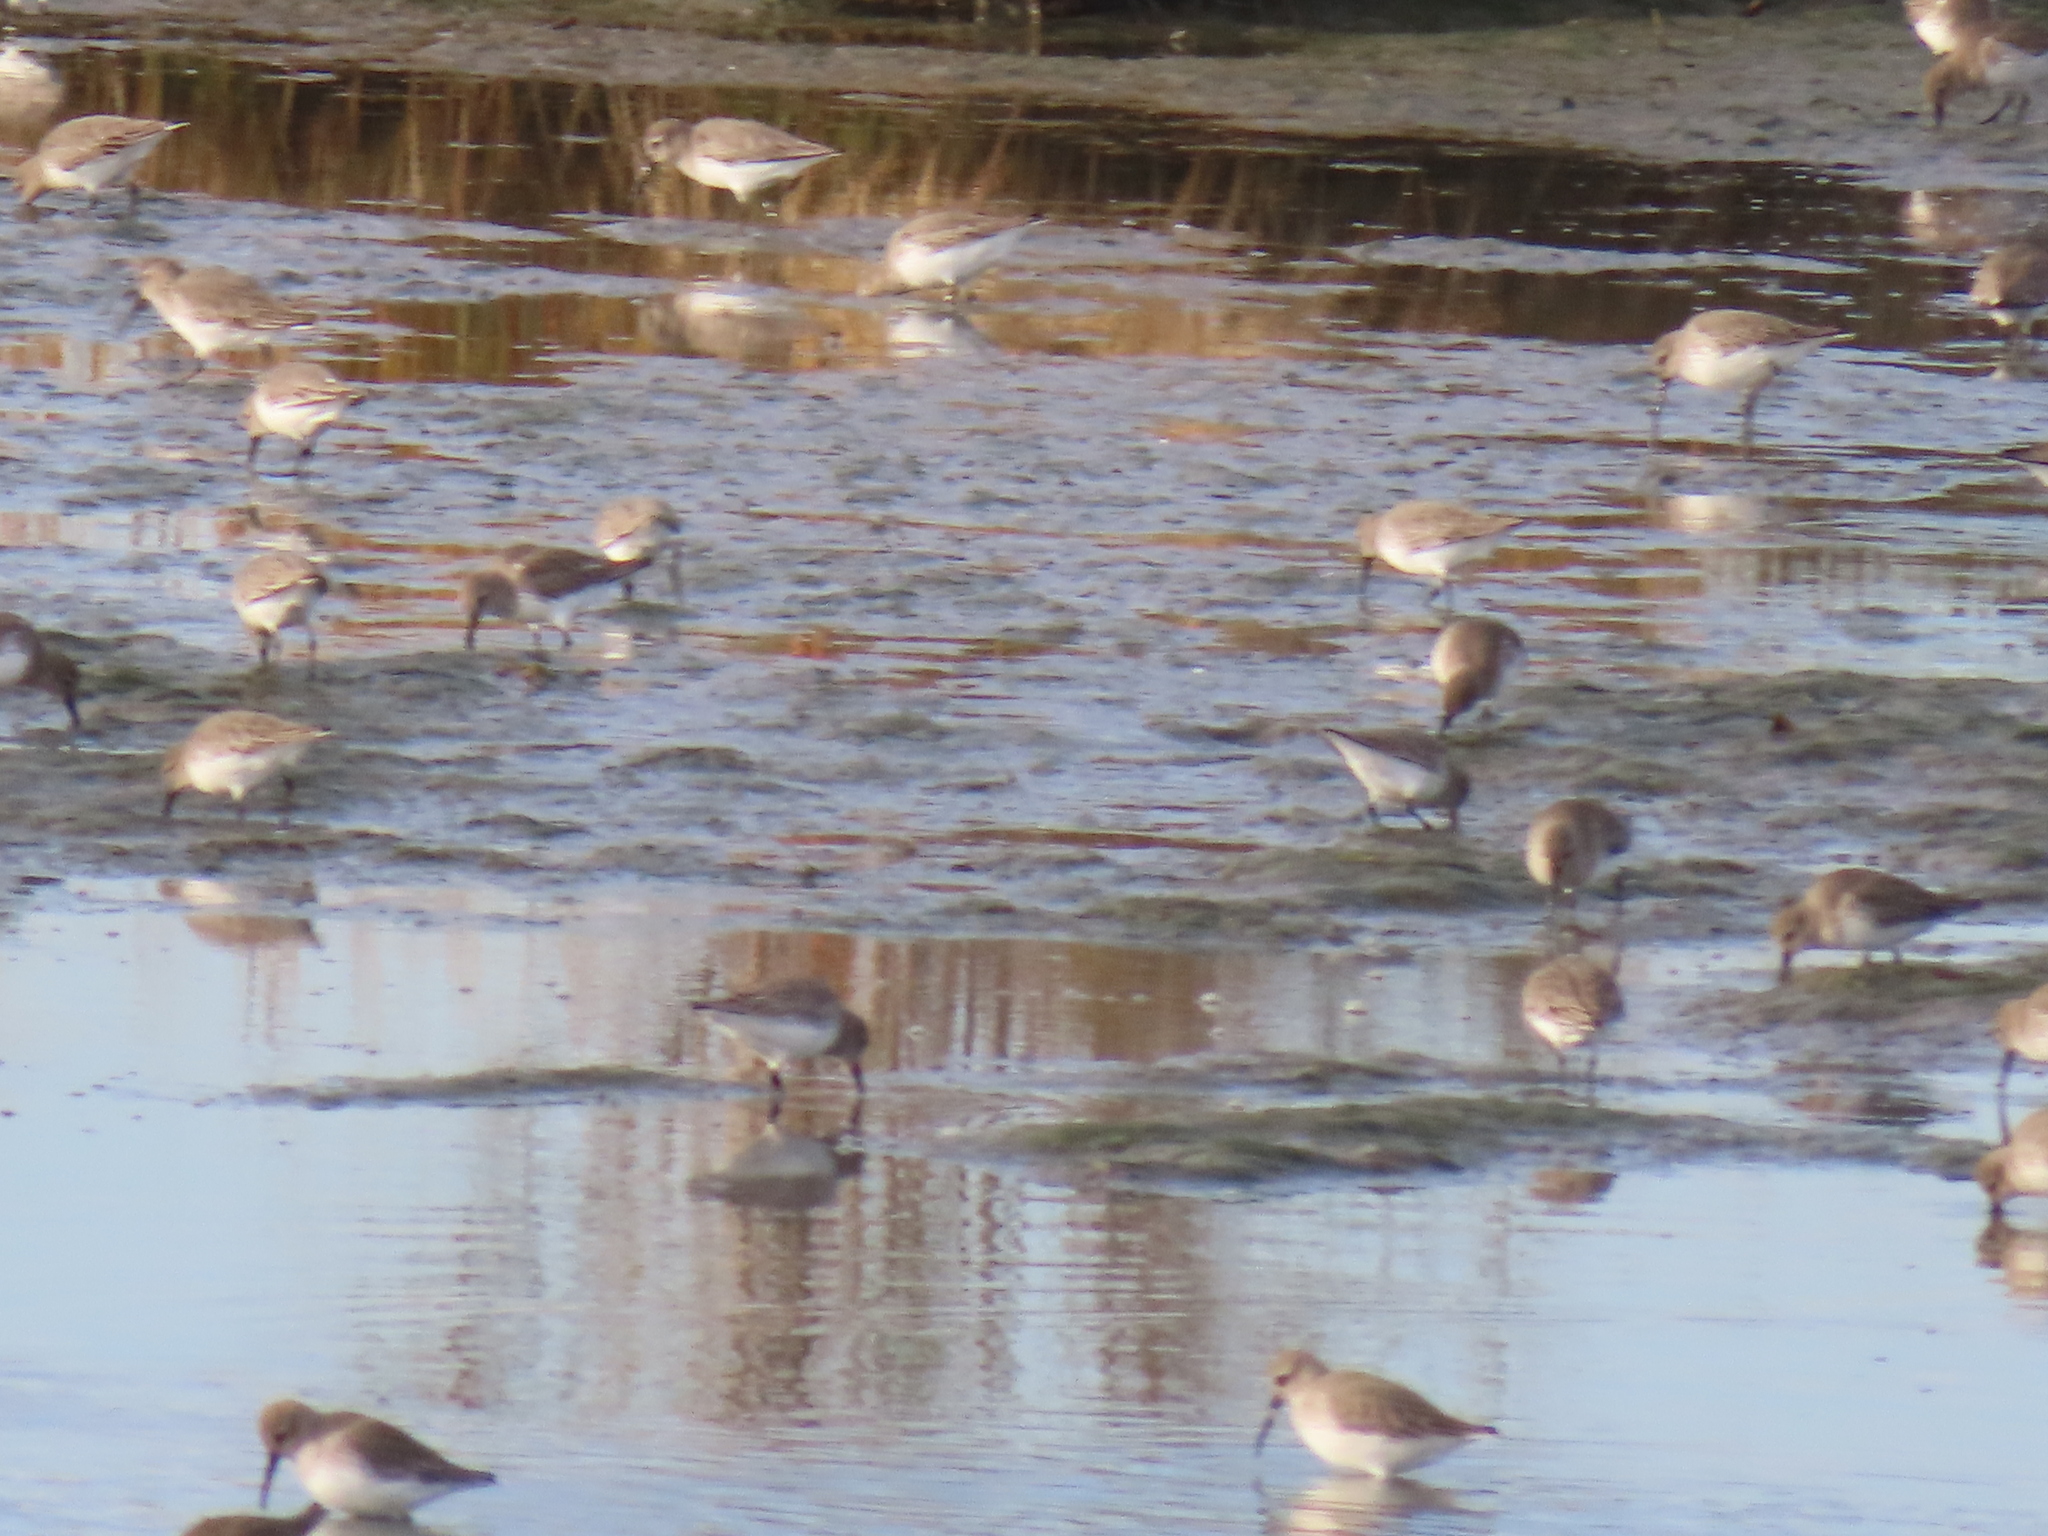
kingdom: Animalia
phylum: Chordata
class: Aves
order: Charadriiformes
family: Scolopacidae
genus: Calidris
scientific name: Calidris alpina
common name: Dunlin
